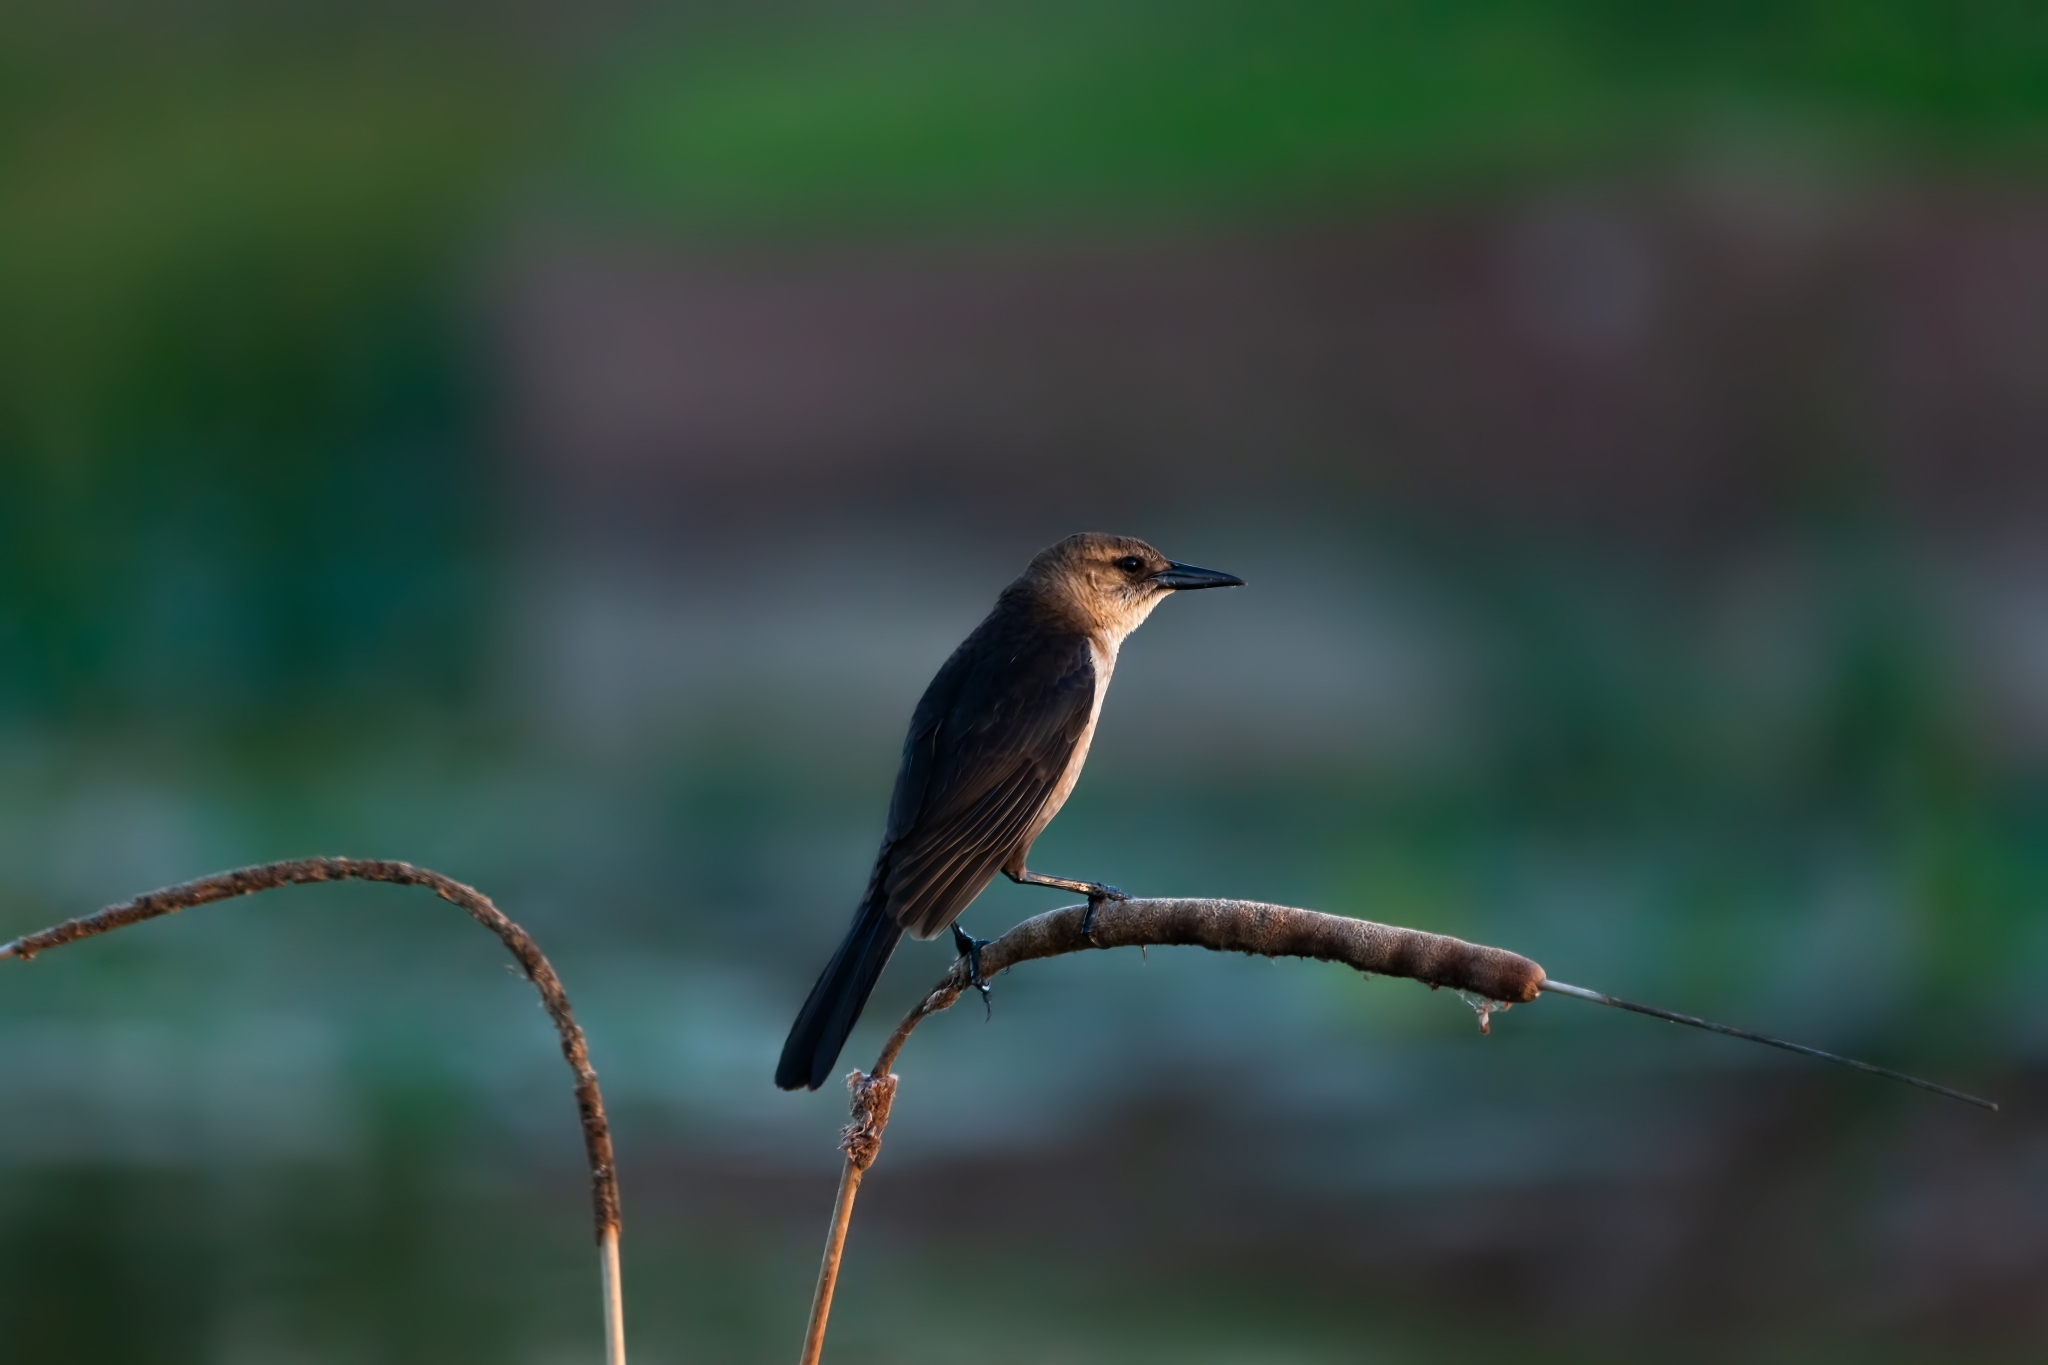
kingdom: Animalia
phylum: Chordata
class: Aves
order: Passeriformes
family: Icteridae
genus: Quiscalus
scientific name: Quiscalus major
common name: Boat-tailed grackle
